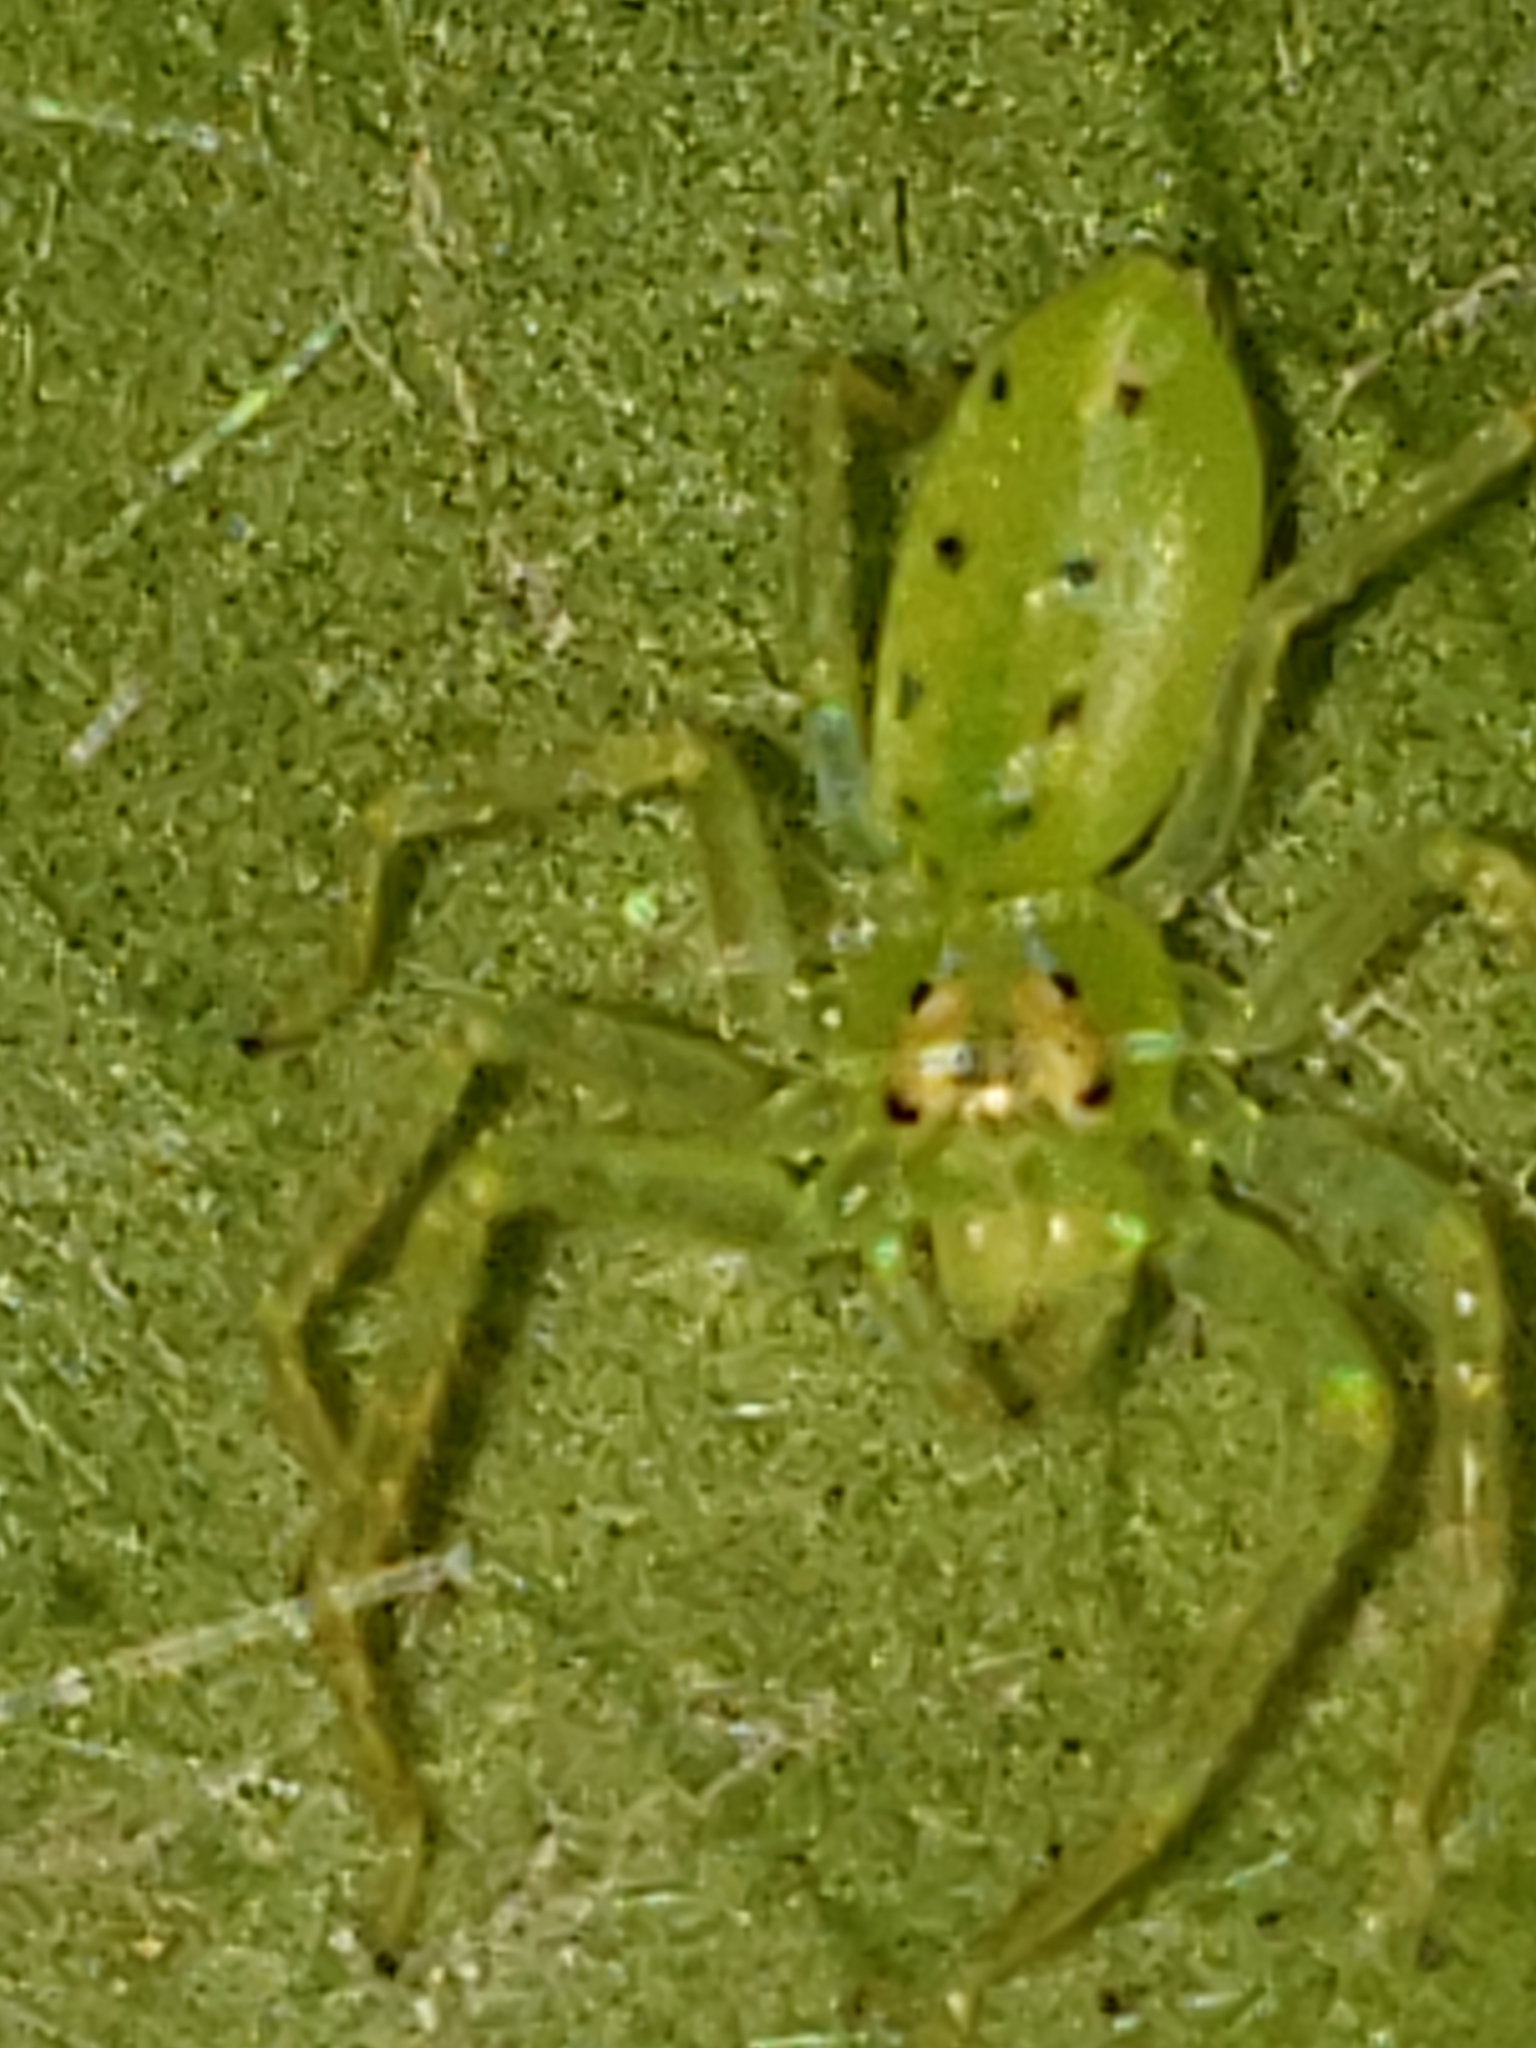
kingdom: Animalia
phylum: Arthropoda
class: Arachnida
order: Araneae
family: Salticidae
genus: Lyssomanes
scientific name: Lyssomanes viridis
